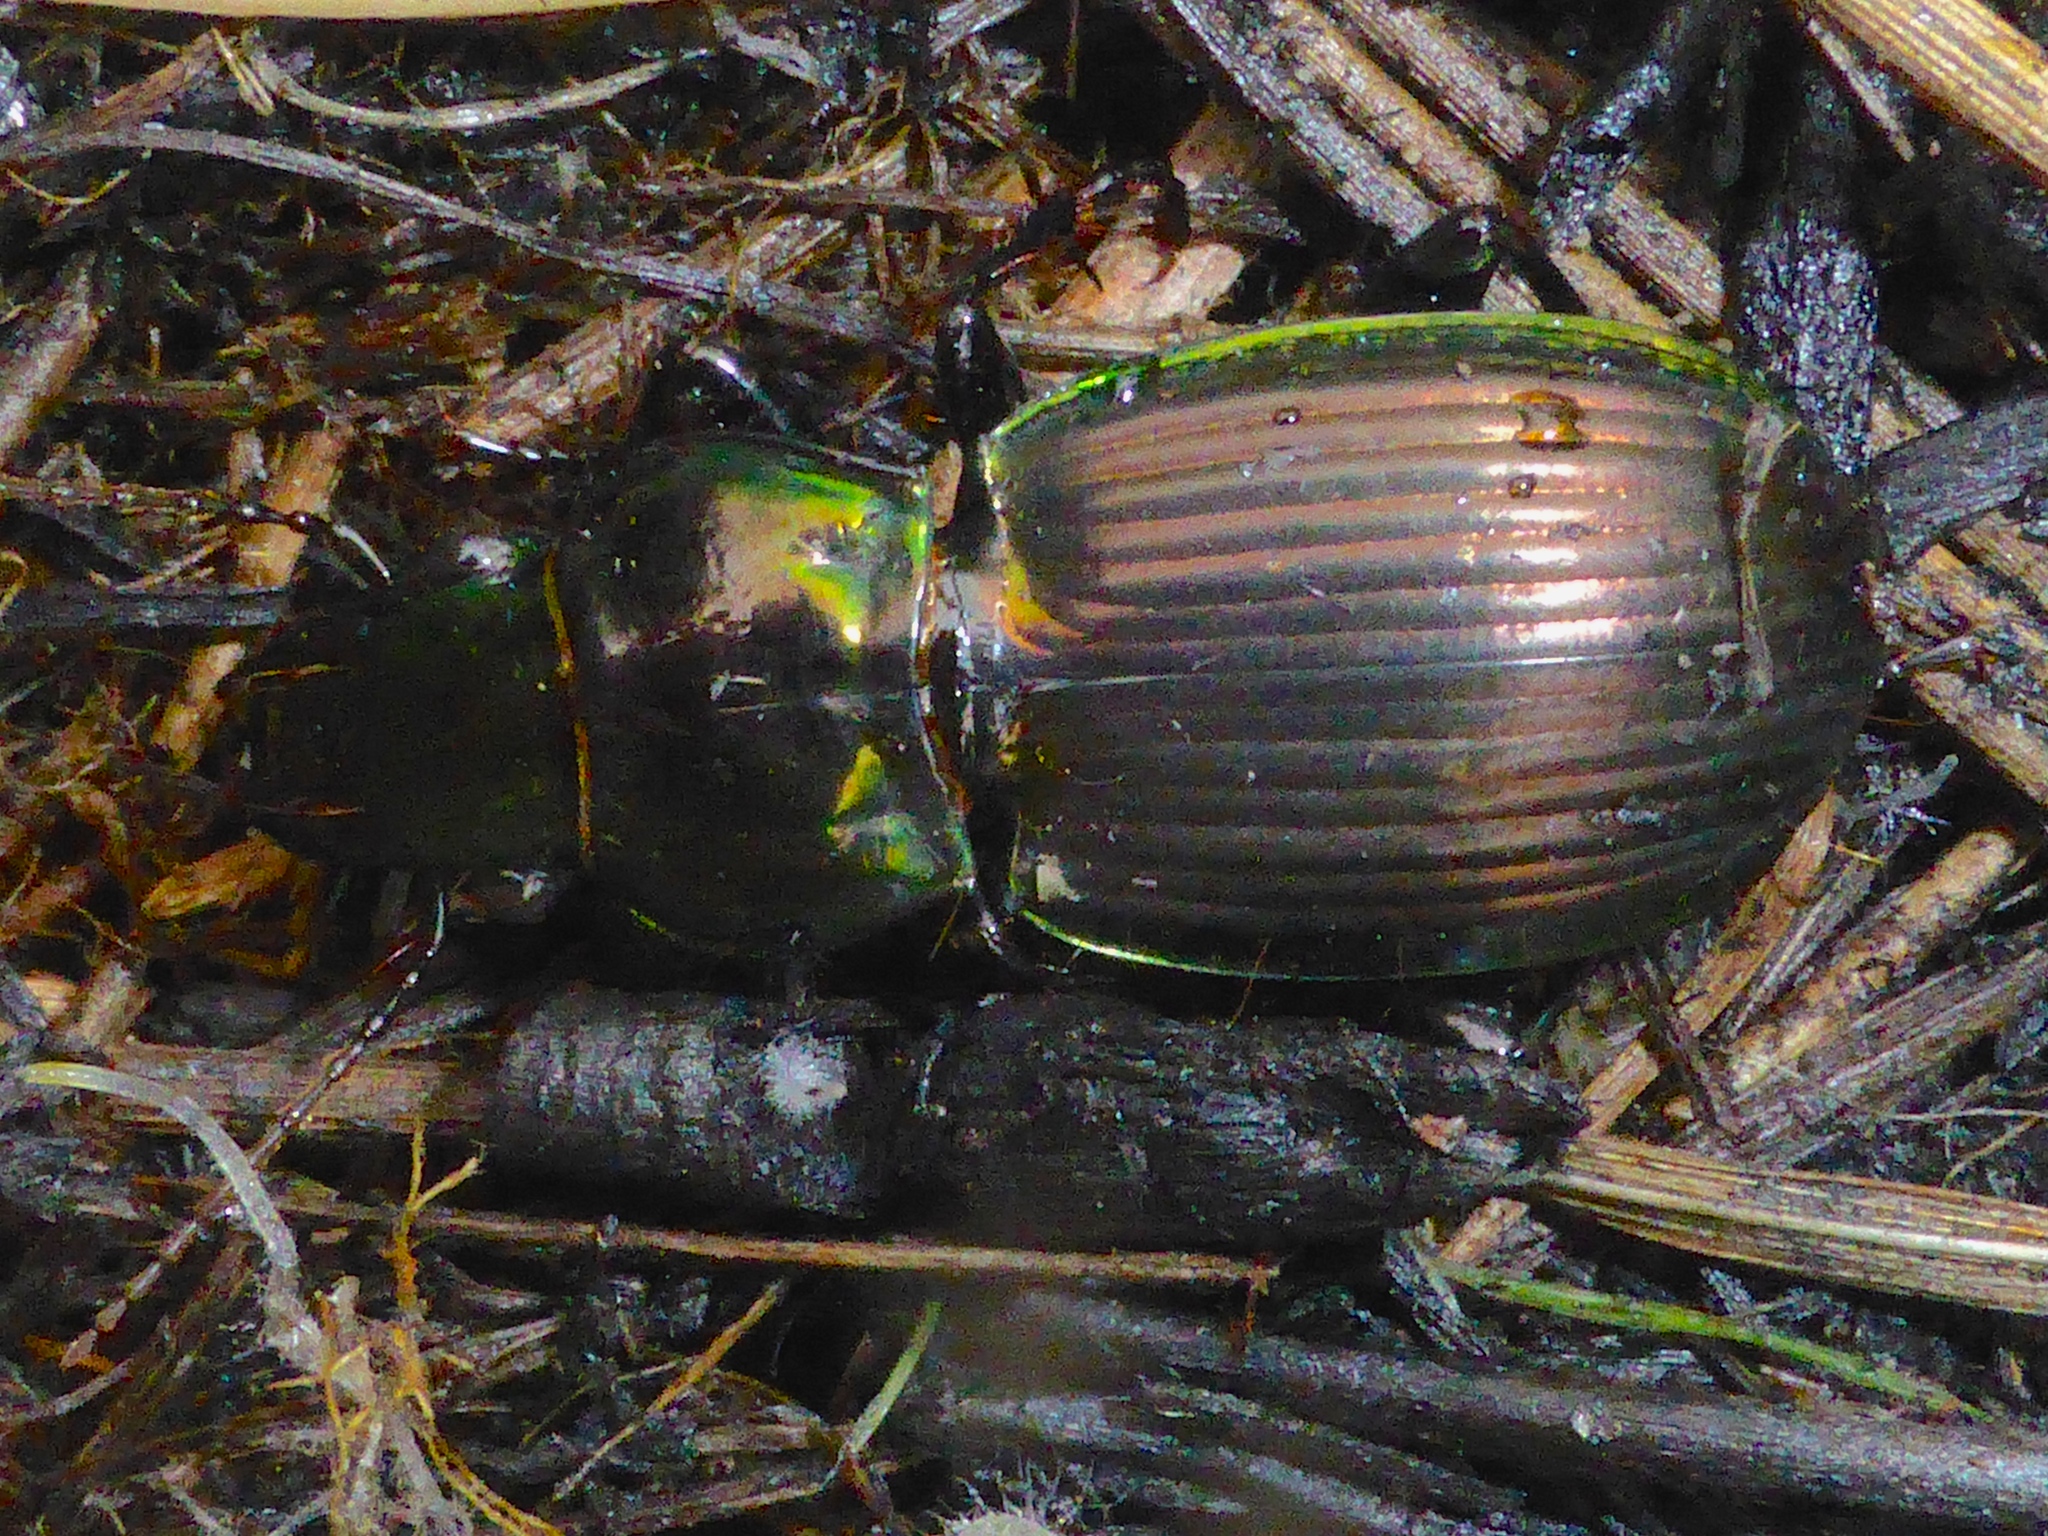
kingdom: Animalia
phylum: Arthropoda
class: Insecta
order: Coleoptera
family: Carabidae
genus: Megadromus
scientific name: Megadromus antarcticus
